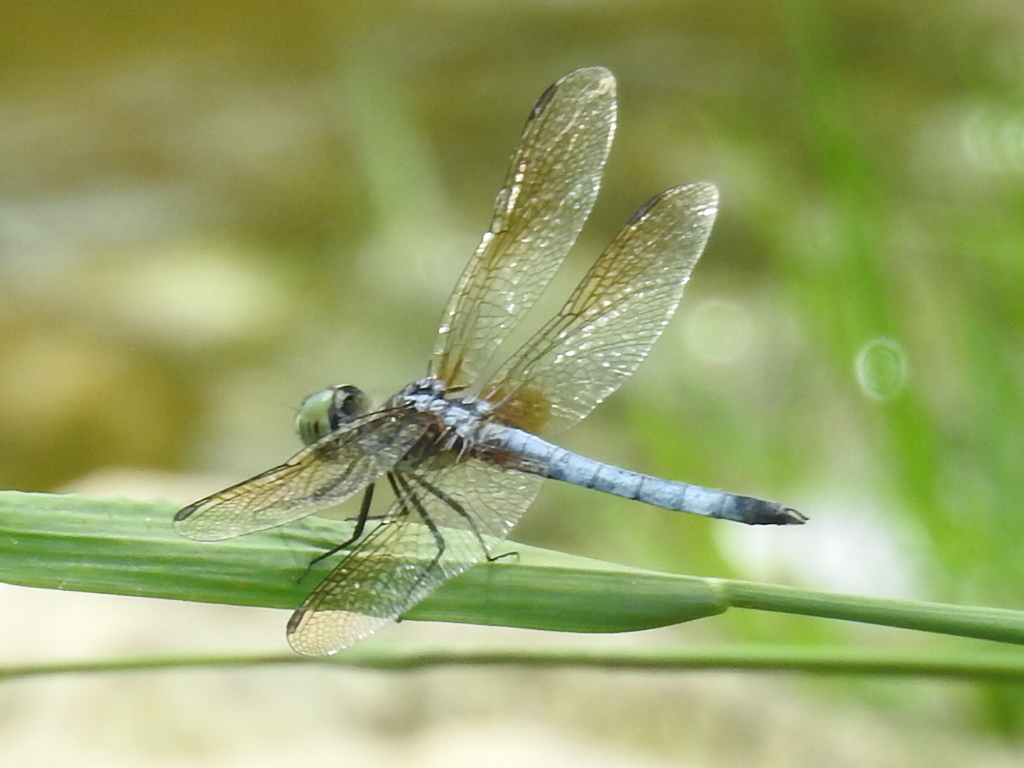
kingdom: Animalia
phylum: Arthropoda
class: Insecta
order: Odonata
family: Libellulidae
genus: Pachydiplax
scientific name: Pachydiplax longipennis
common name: Blue dasher
